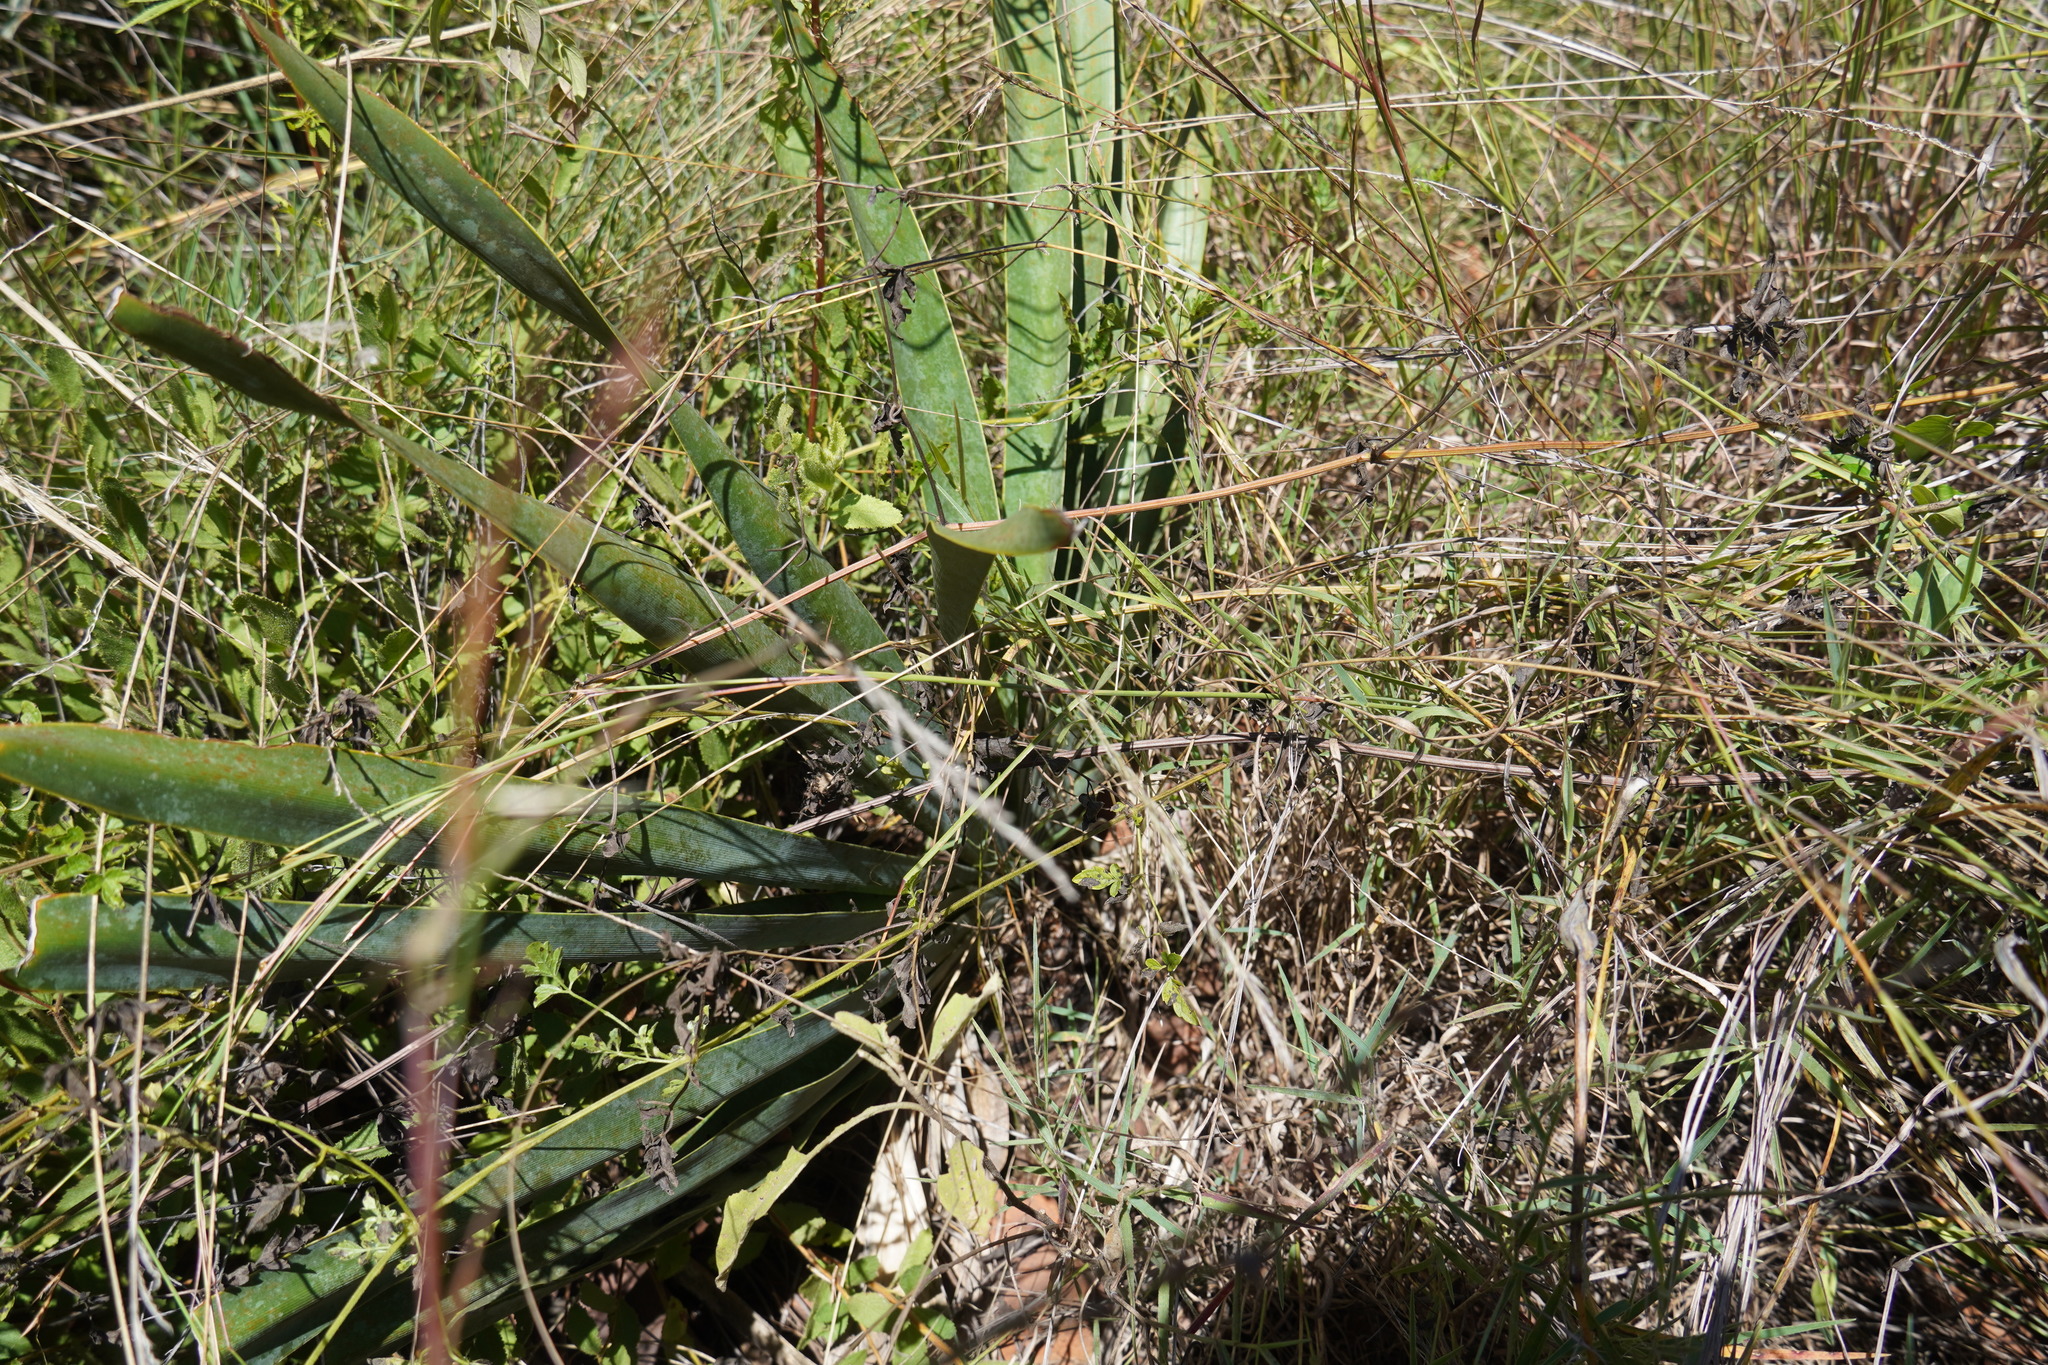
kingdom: Plantae
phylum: Tracheophyta
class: Liliopsida
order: Asparagales
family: Amaryllidaceae
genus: Boophone
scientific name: Boophone disticha
